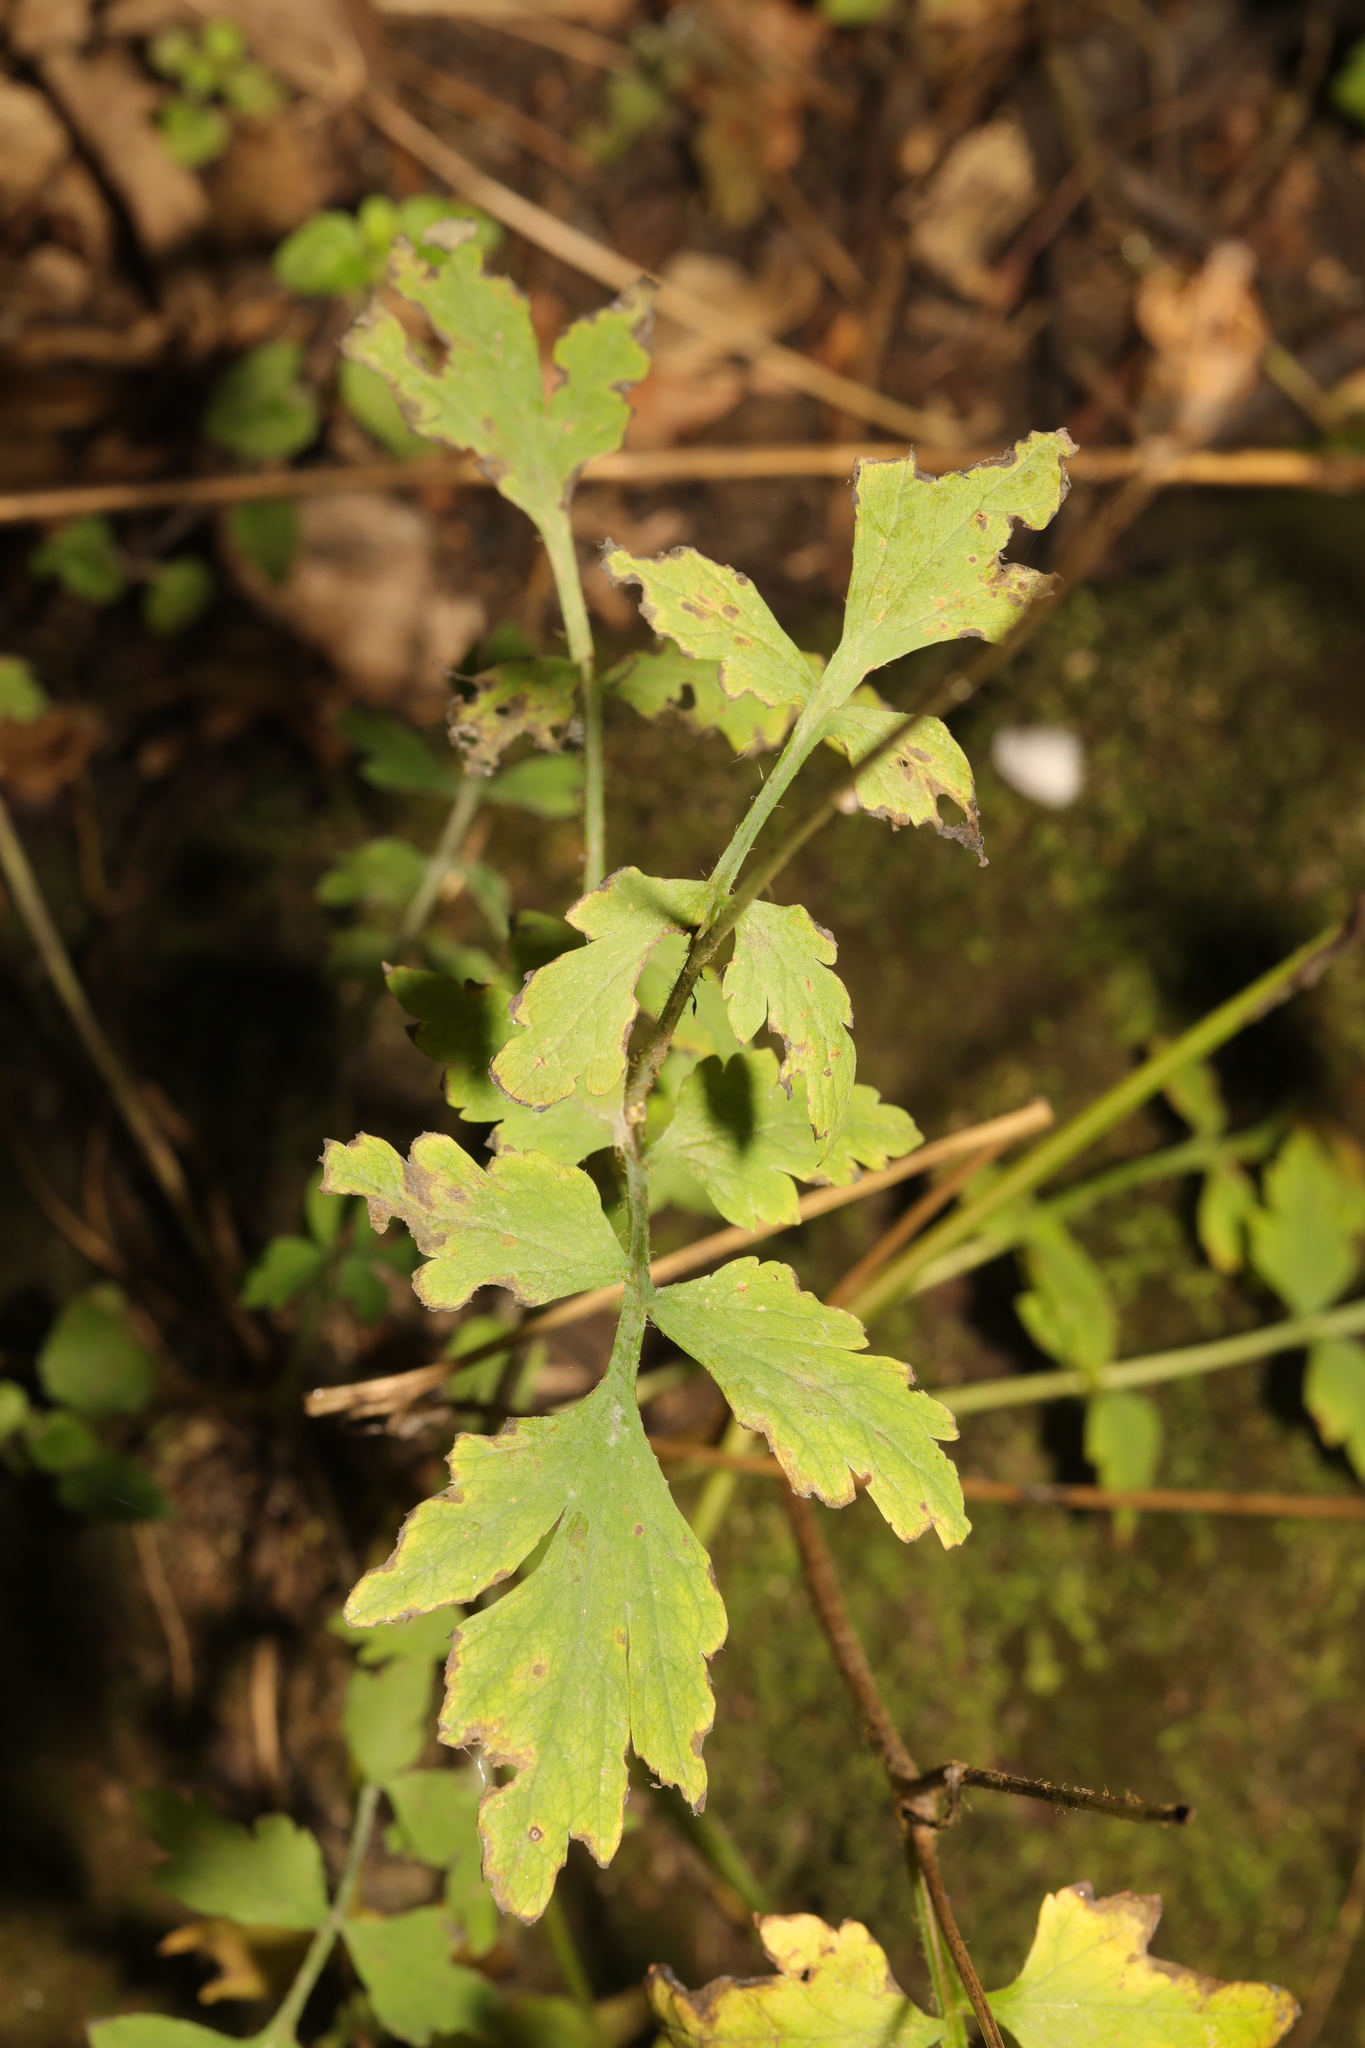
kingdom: Plantae
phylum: Tracheophyta
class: Magnoliopsida
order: Rosales
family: Rosaceae
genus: Geum
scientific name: Geum urbanum
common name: Wood avens
